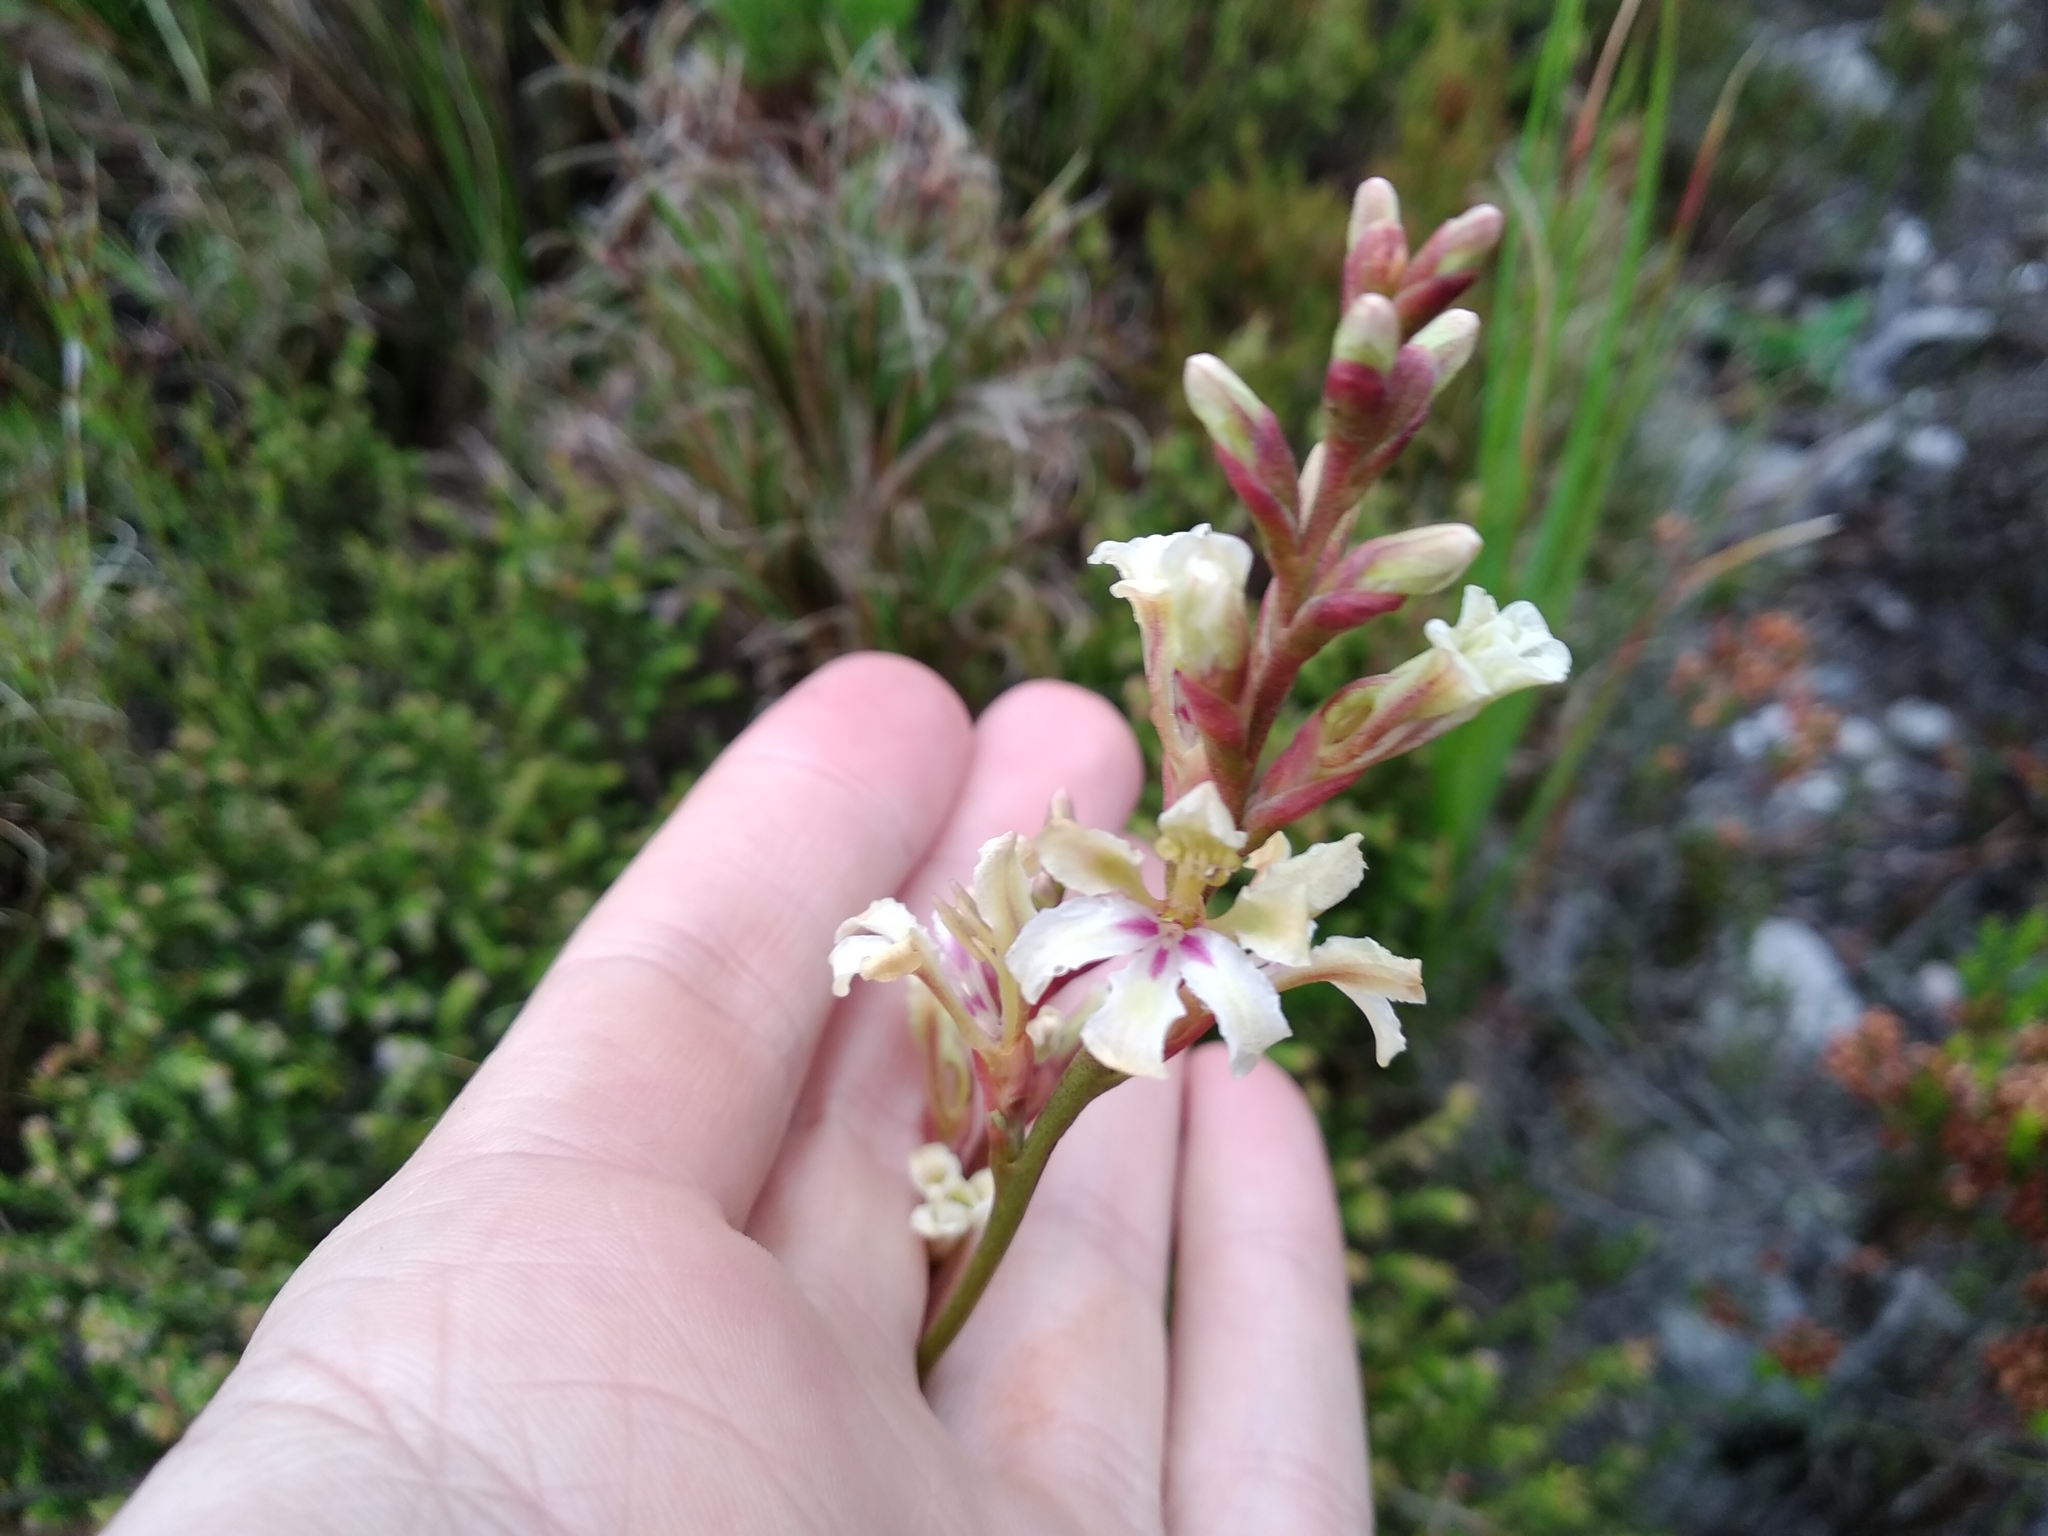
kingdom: Plantae
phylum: Tracheophyta
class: Liliopsida
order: Asparagales
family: Iridaceae
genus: Tritoniopsis
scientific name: Tritoniopsis unguicularis
